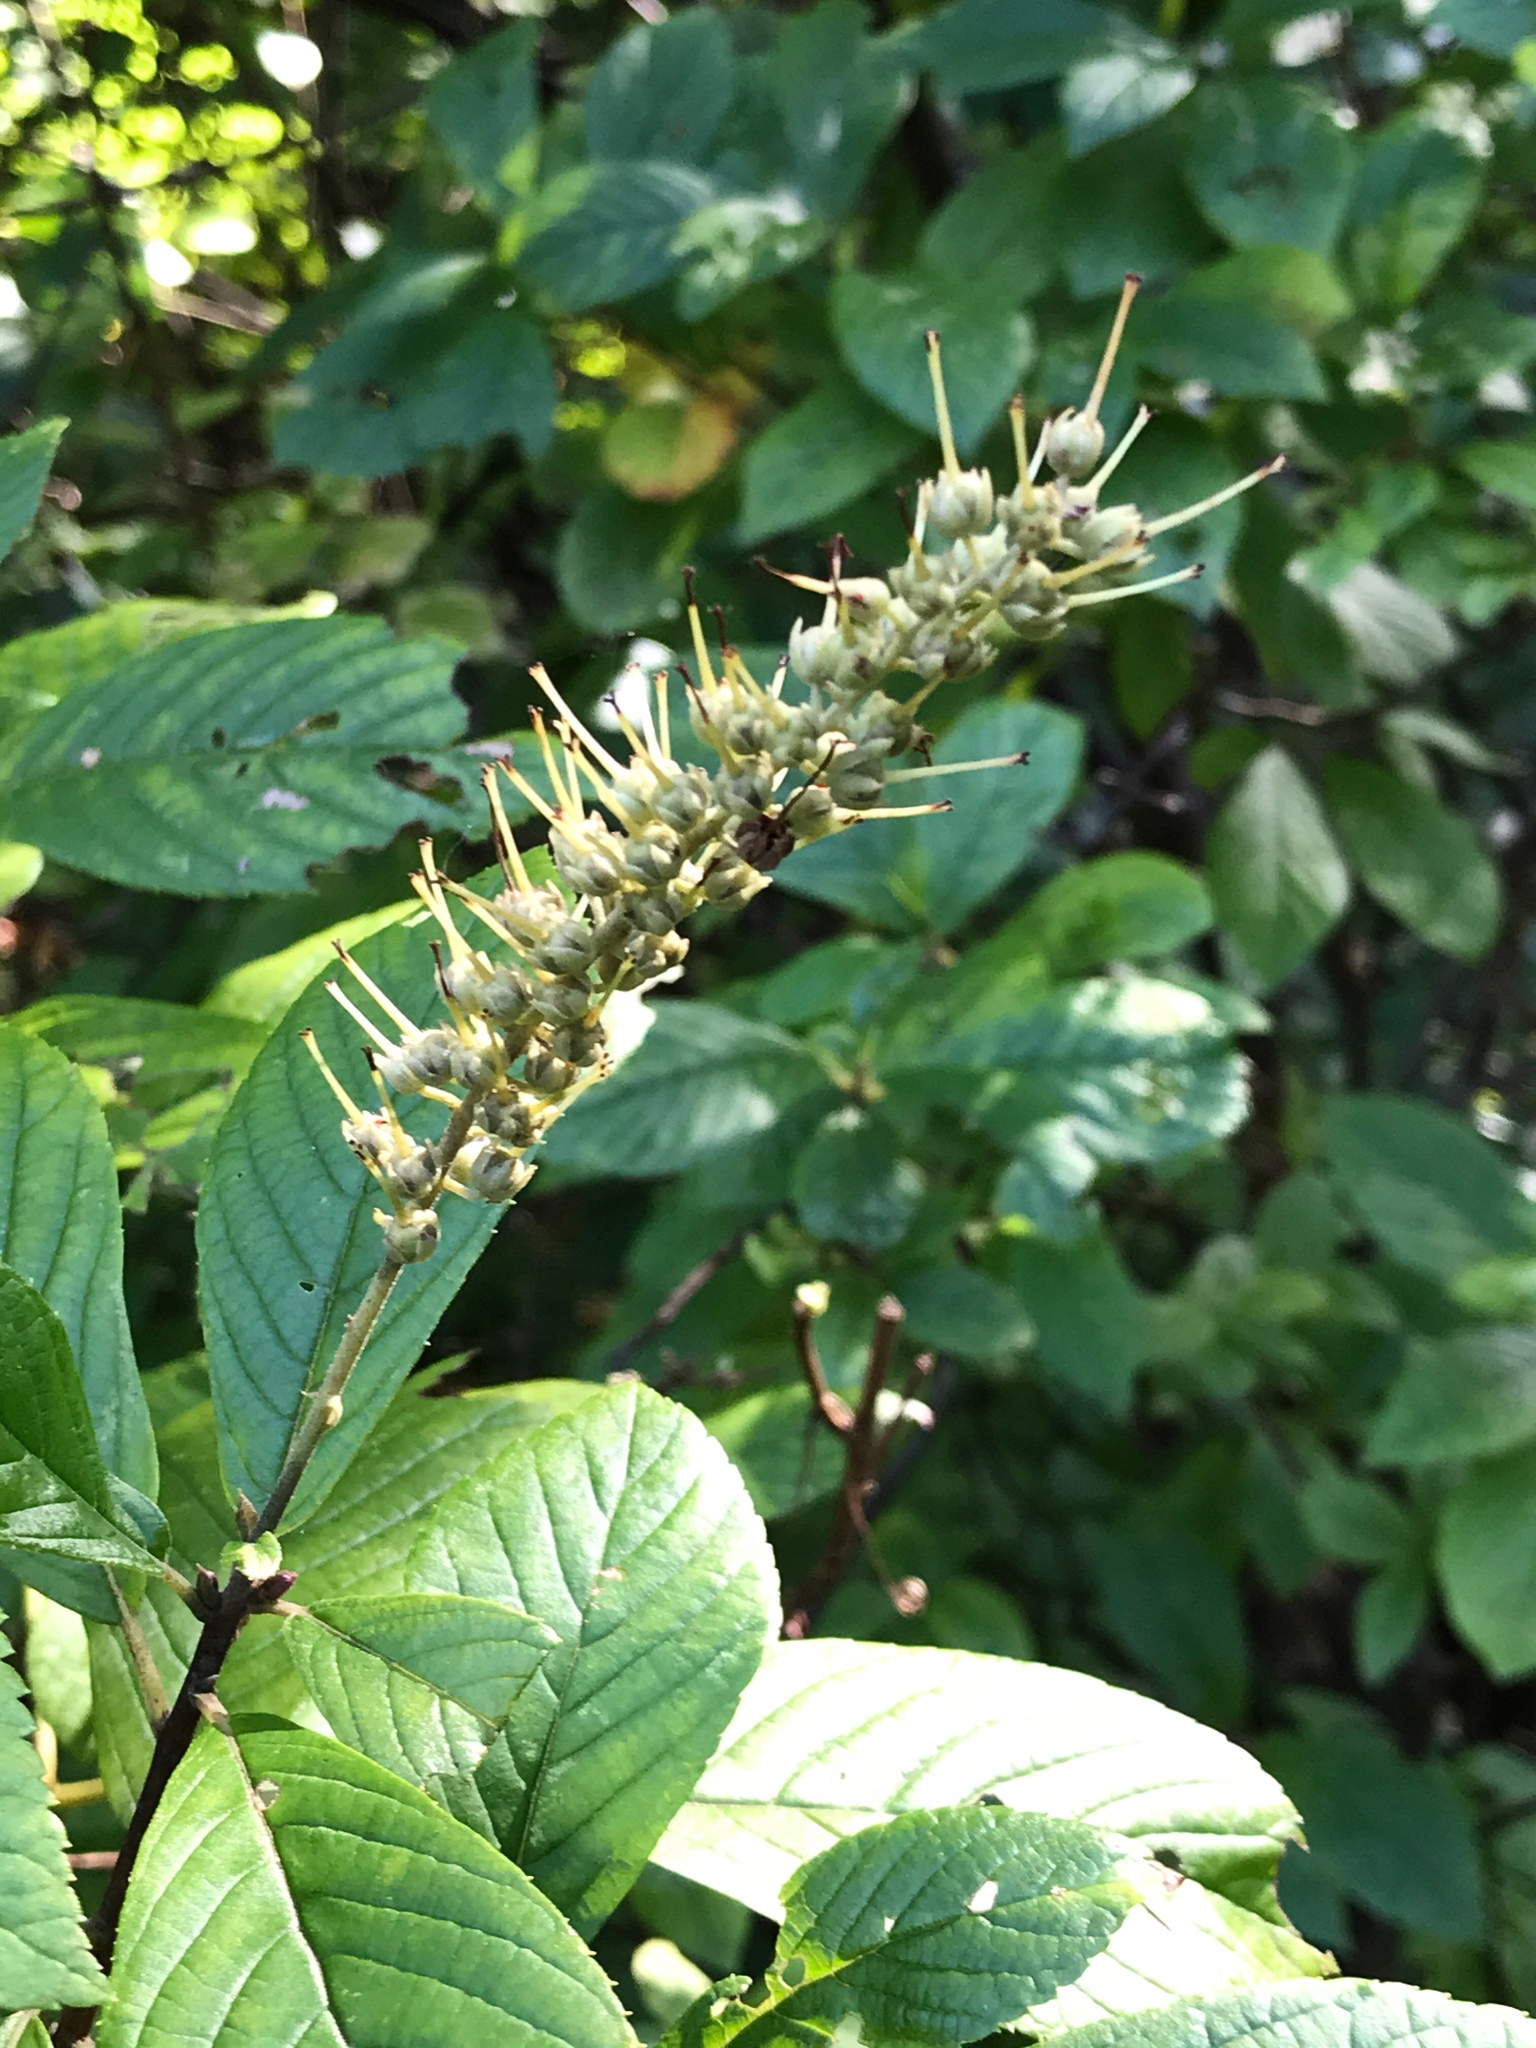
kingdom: Plantae
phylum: Tracheophyta
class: Magnoliopsida
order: Ericales
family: Clethraceae
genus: Clethra
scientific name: Clethra alnifolia
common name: Sweet pepperbush
